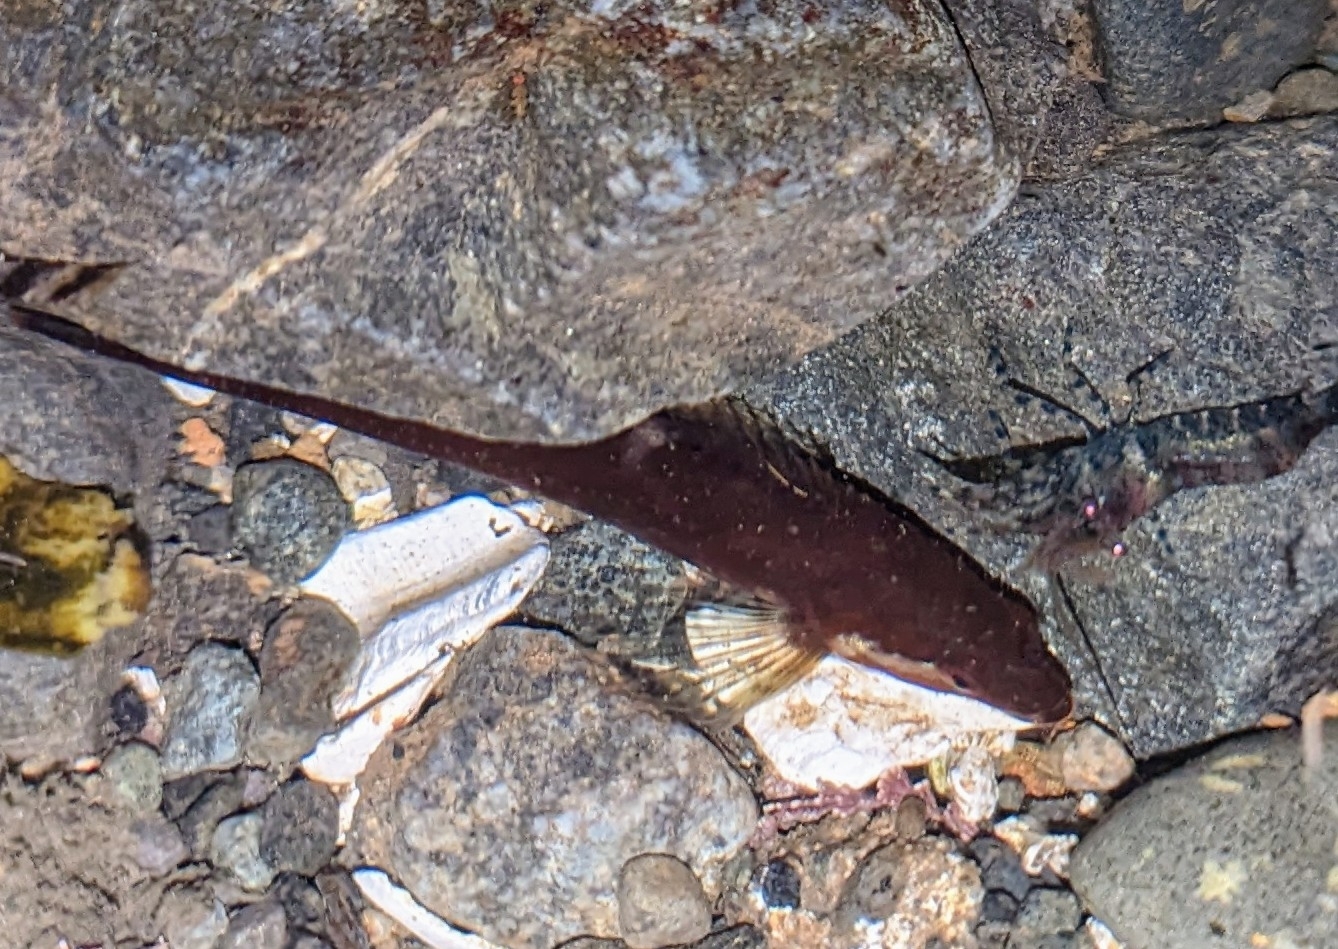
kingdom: Animalia
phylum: Chordata
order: Scorpaeniformes
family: Cottidae
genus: Synchirus
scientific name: Synchirus gilli
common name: Manacled sculpin
